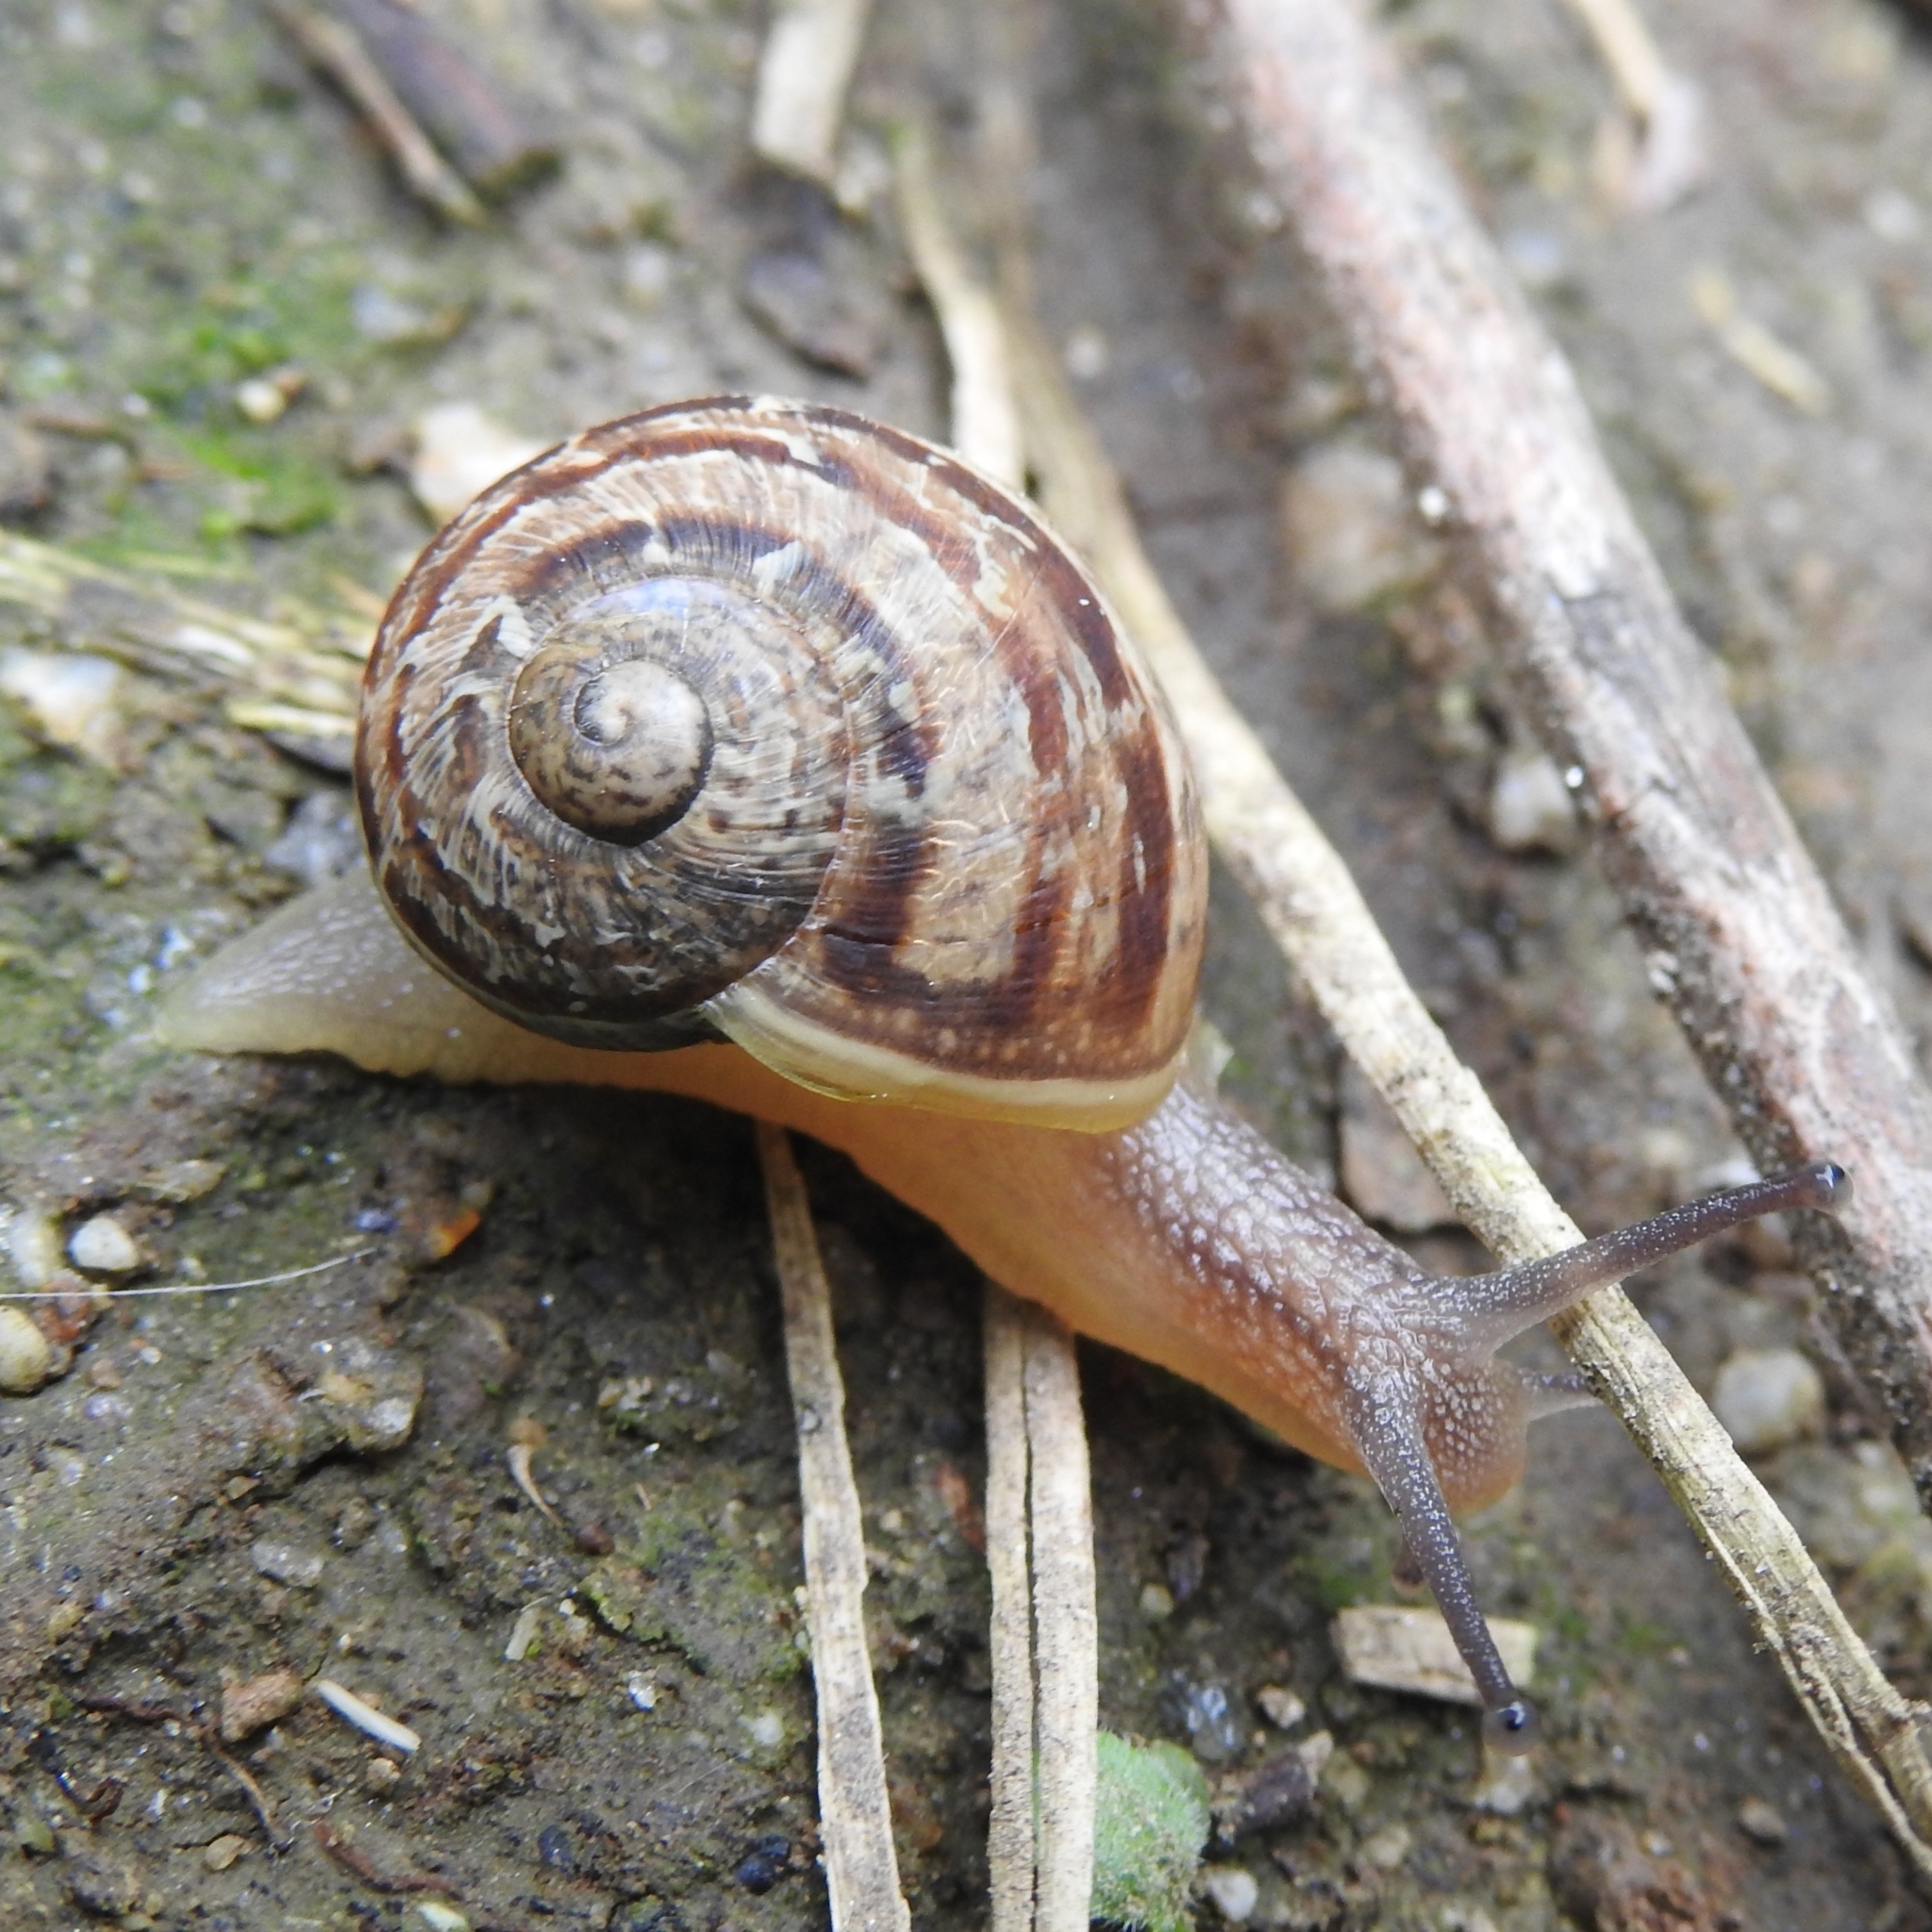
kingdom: Animalia
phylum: Mollusca
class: Gastropoda
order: Stylommatophora
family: Helicidae
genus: Cornu
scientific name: Cornu aspersum
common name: Brown garden snail
